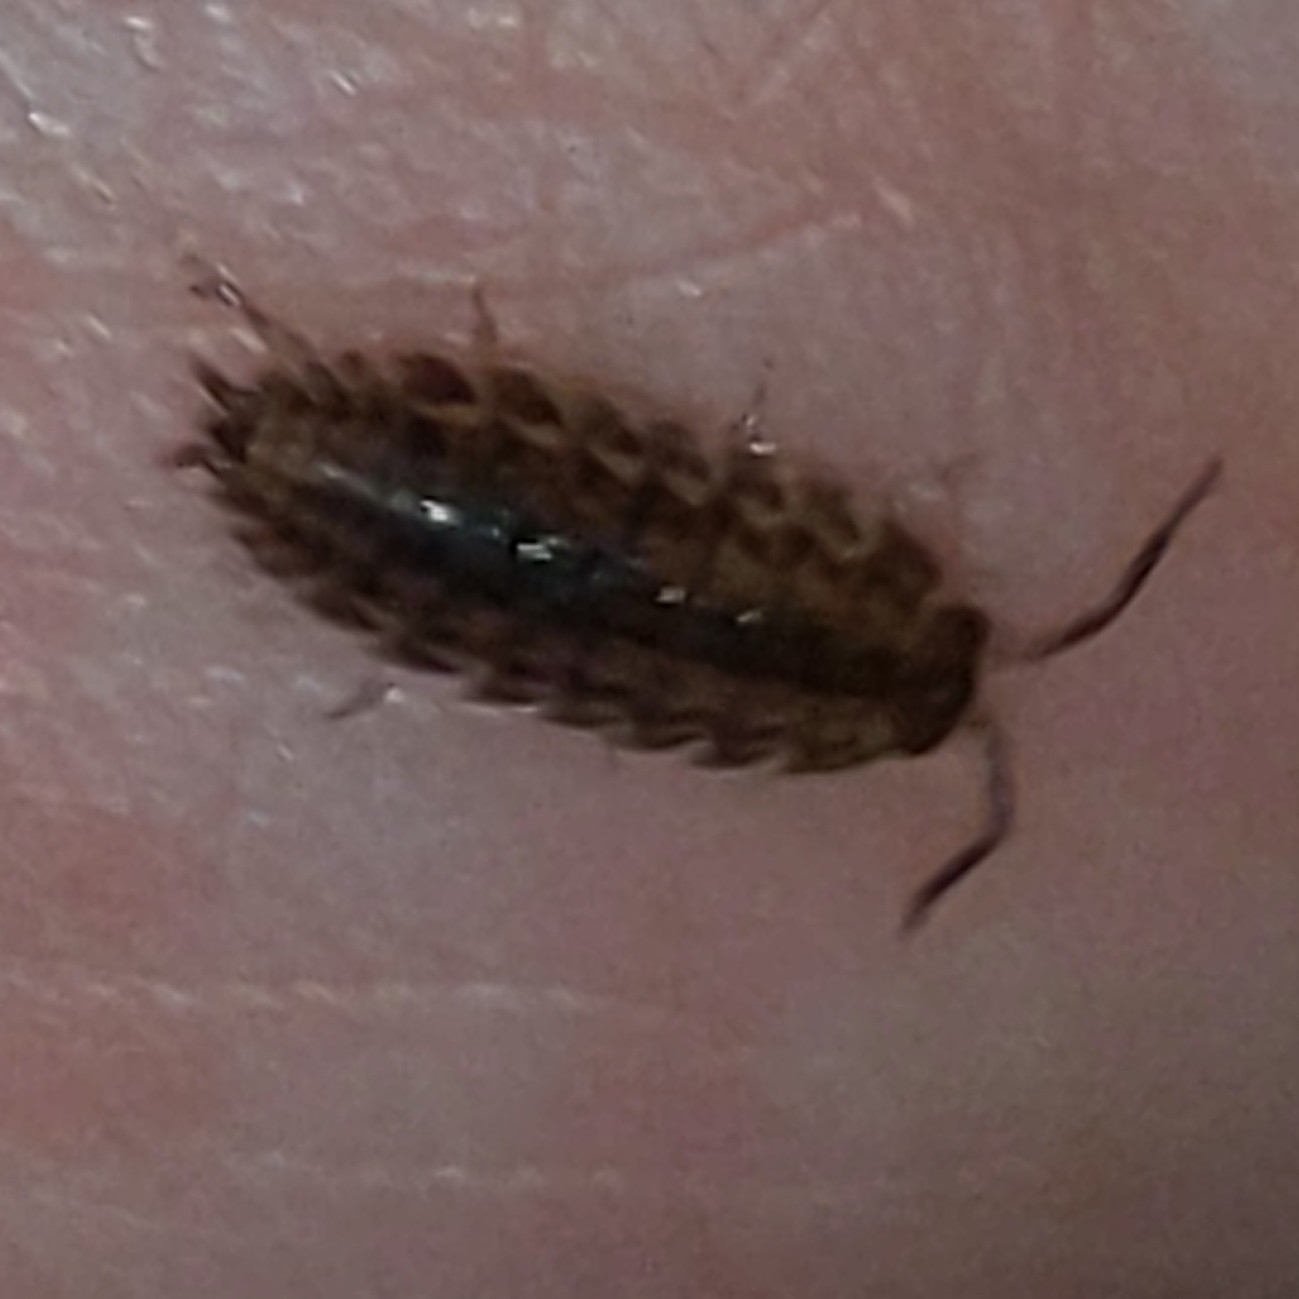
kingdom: Animalia
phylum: Arthropoda
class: Malacostraca
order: Isopoda
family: Trachelipodidae
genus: Trachelipus
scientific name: Trachelipus rathkii
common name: Isopod
